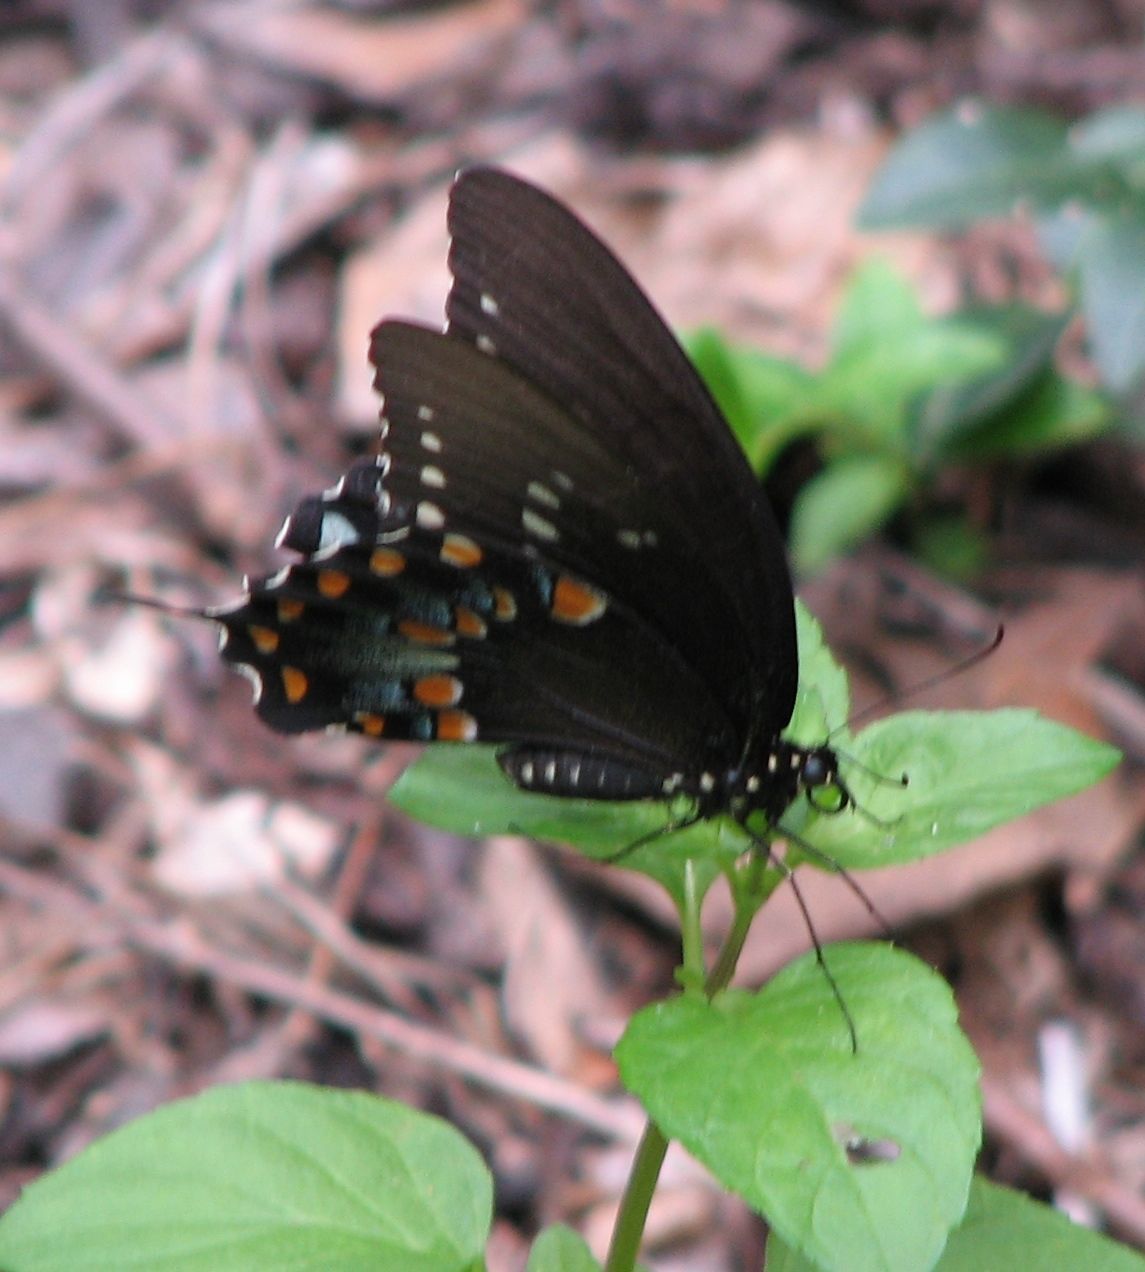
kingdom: Animalia
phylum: Arthropoda
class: Insecta
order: Lepidoptera
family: Papilionidae
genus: Papilio
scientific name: Papilio troilus
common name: Spicebush swallowtail
